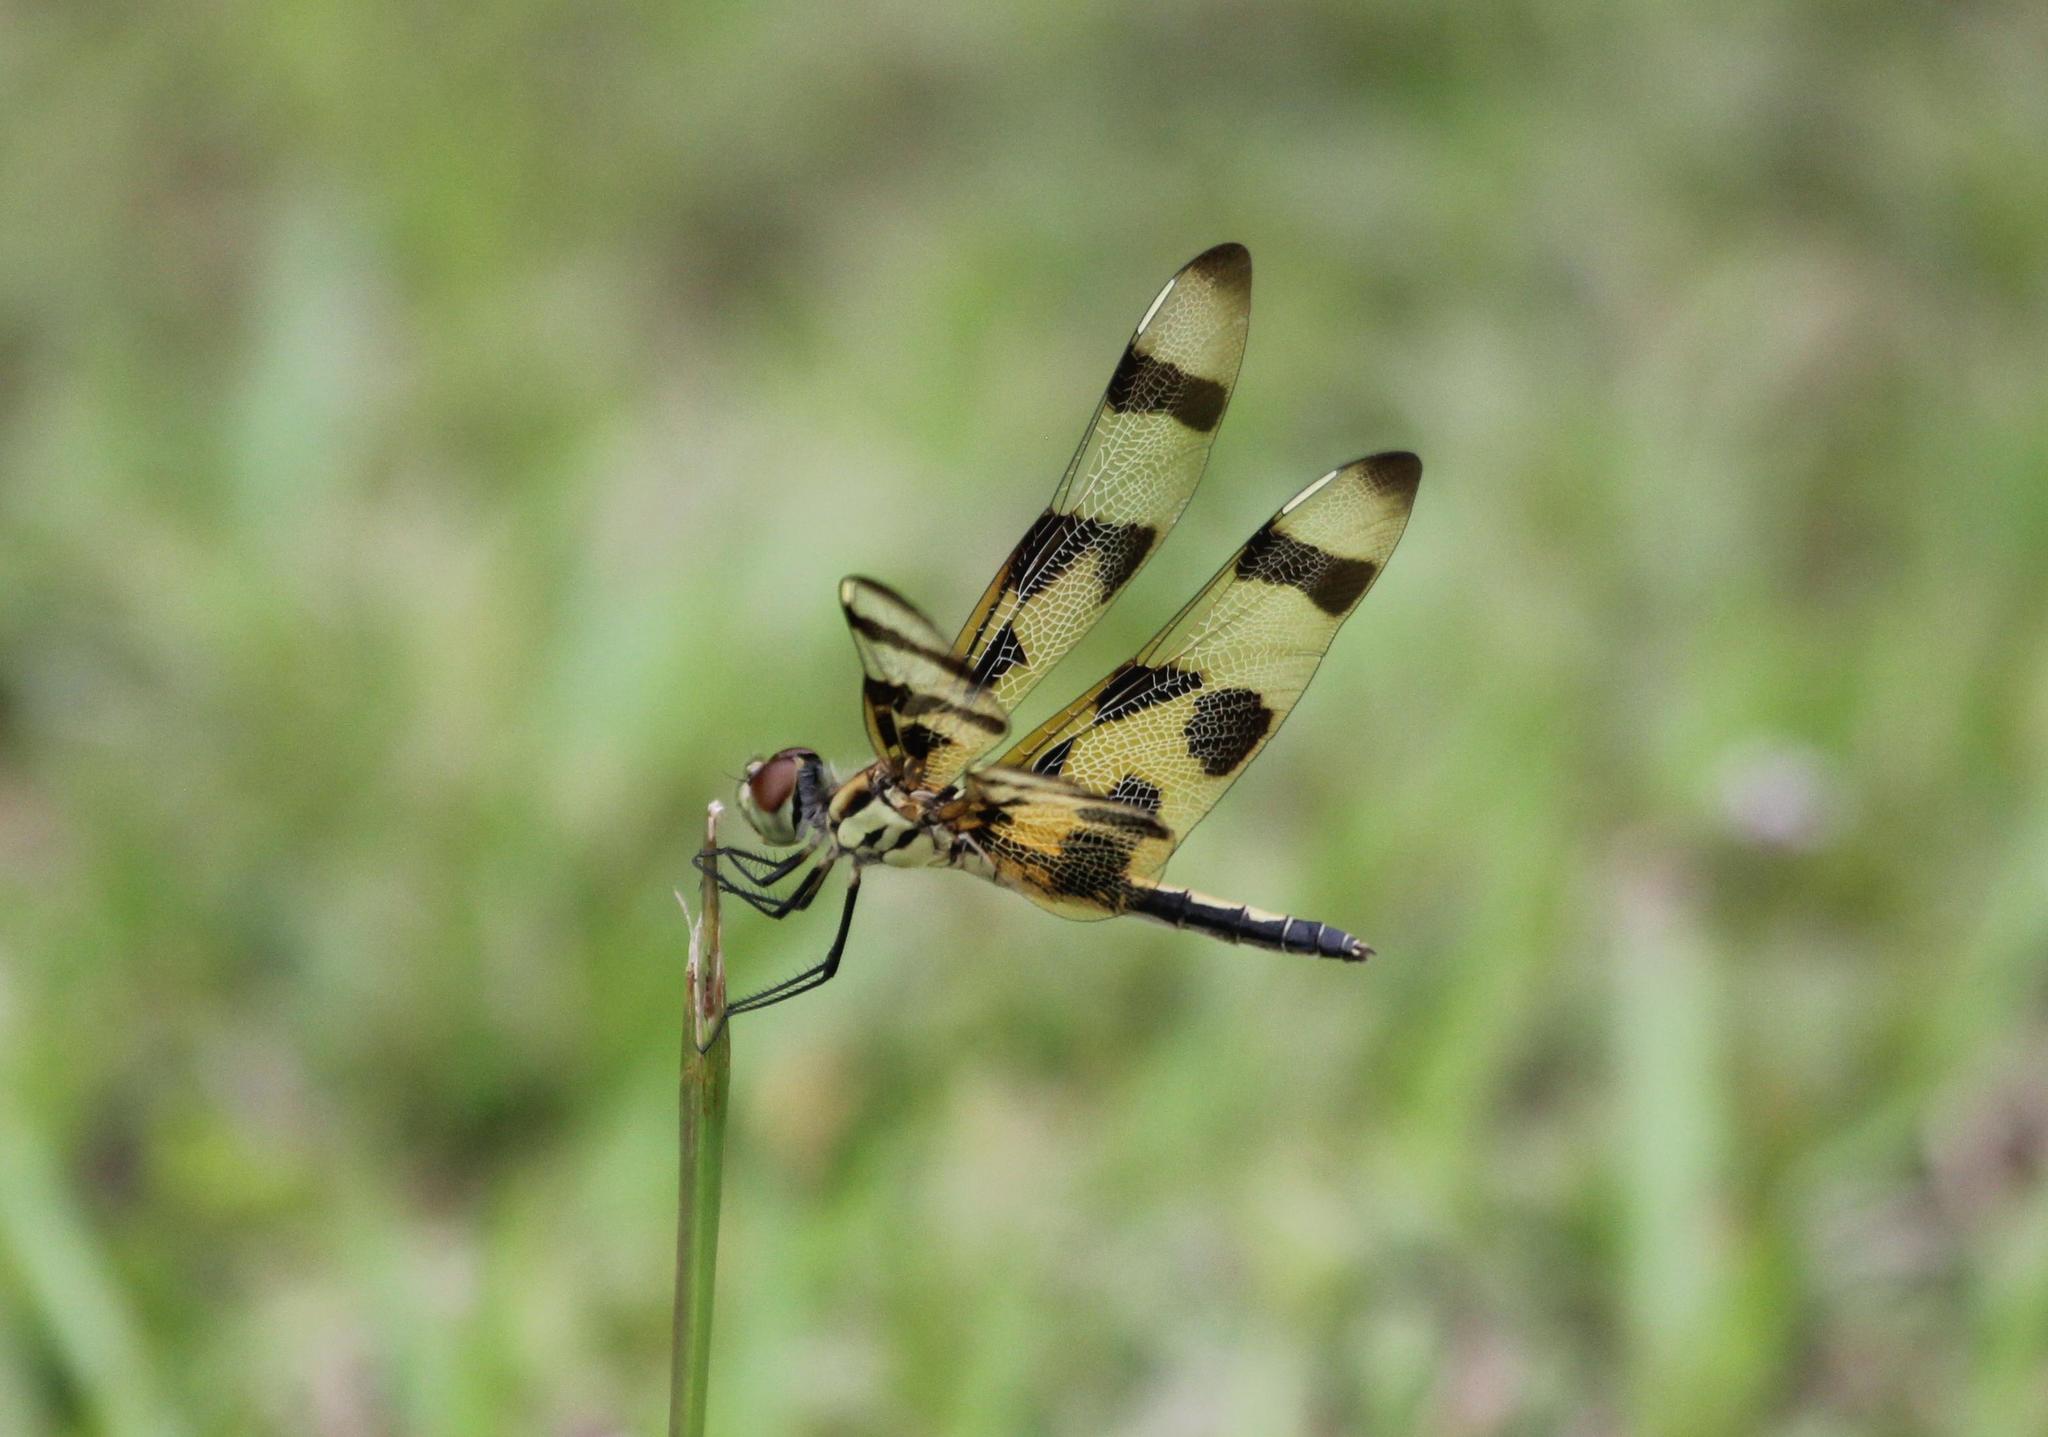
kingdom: Animalia
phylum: Arthropoda
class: Insecta
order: Odonata
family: Libellulidae
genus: Celithemis
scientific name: Celithemis fasciata
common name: Banded pennant
